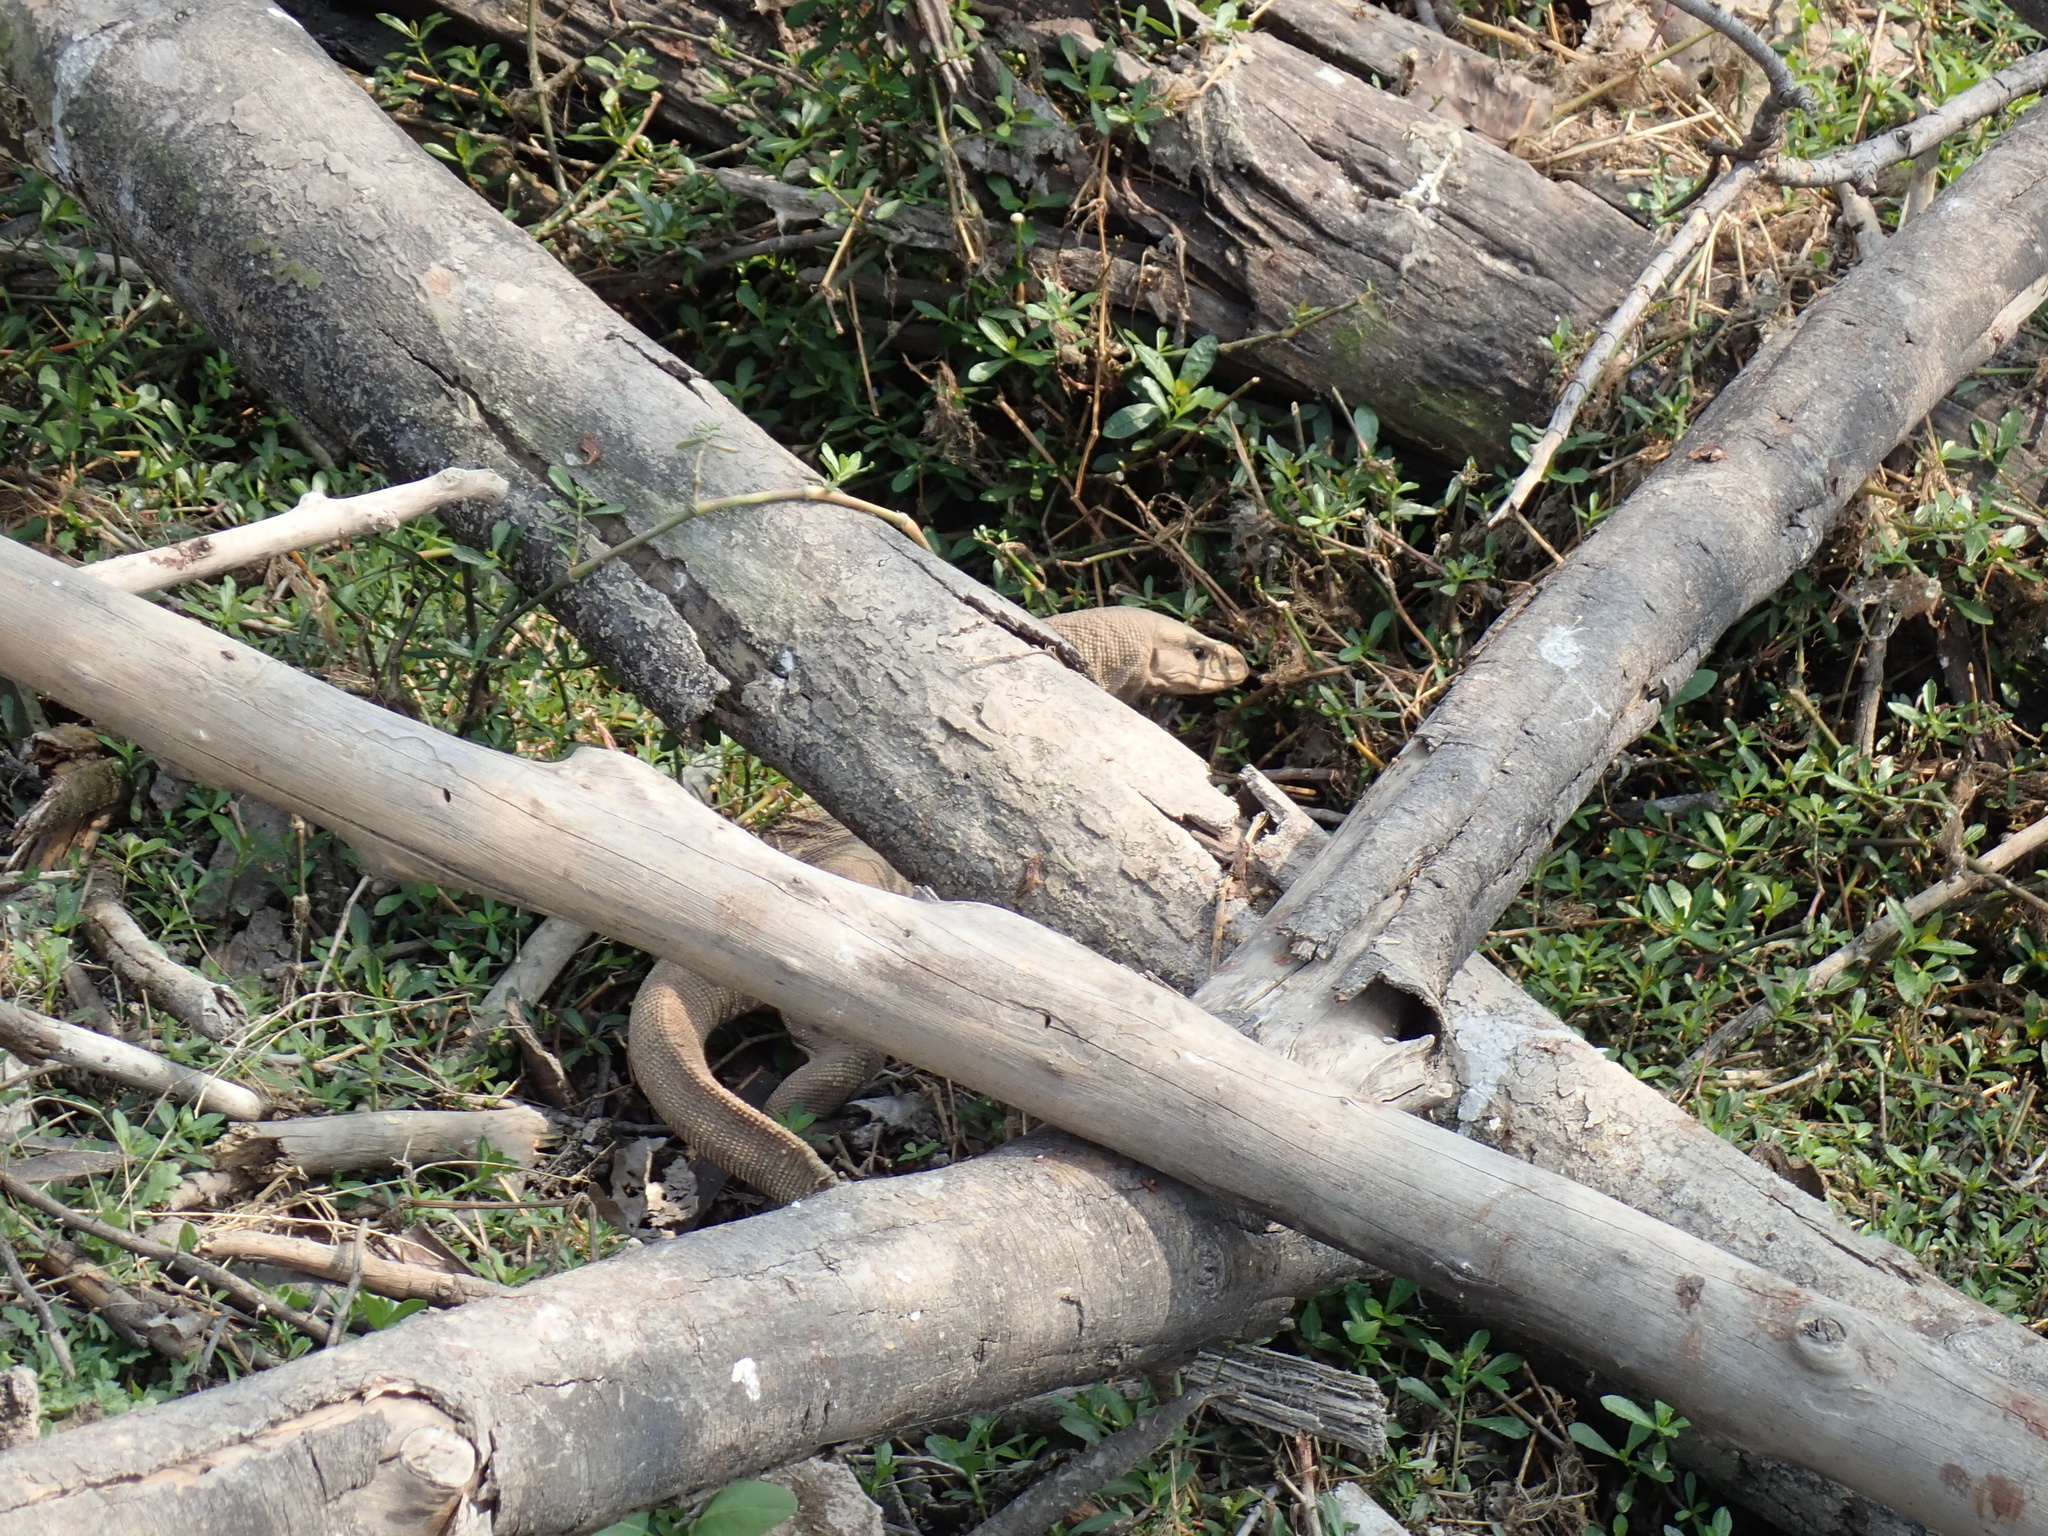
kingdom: Animalia
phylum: Chordata
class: Squamata
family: Varanidae
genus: Varanus
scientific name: Varanus bengalensis
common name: Bengal monitor
